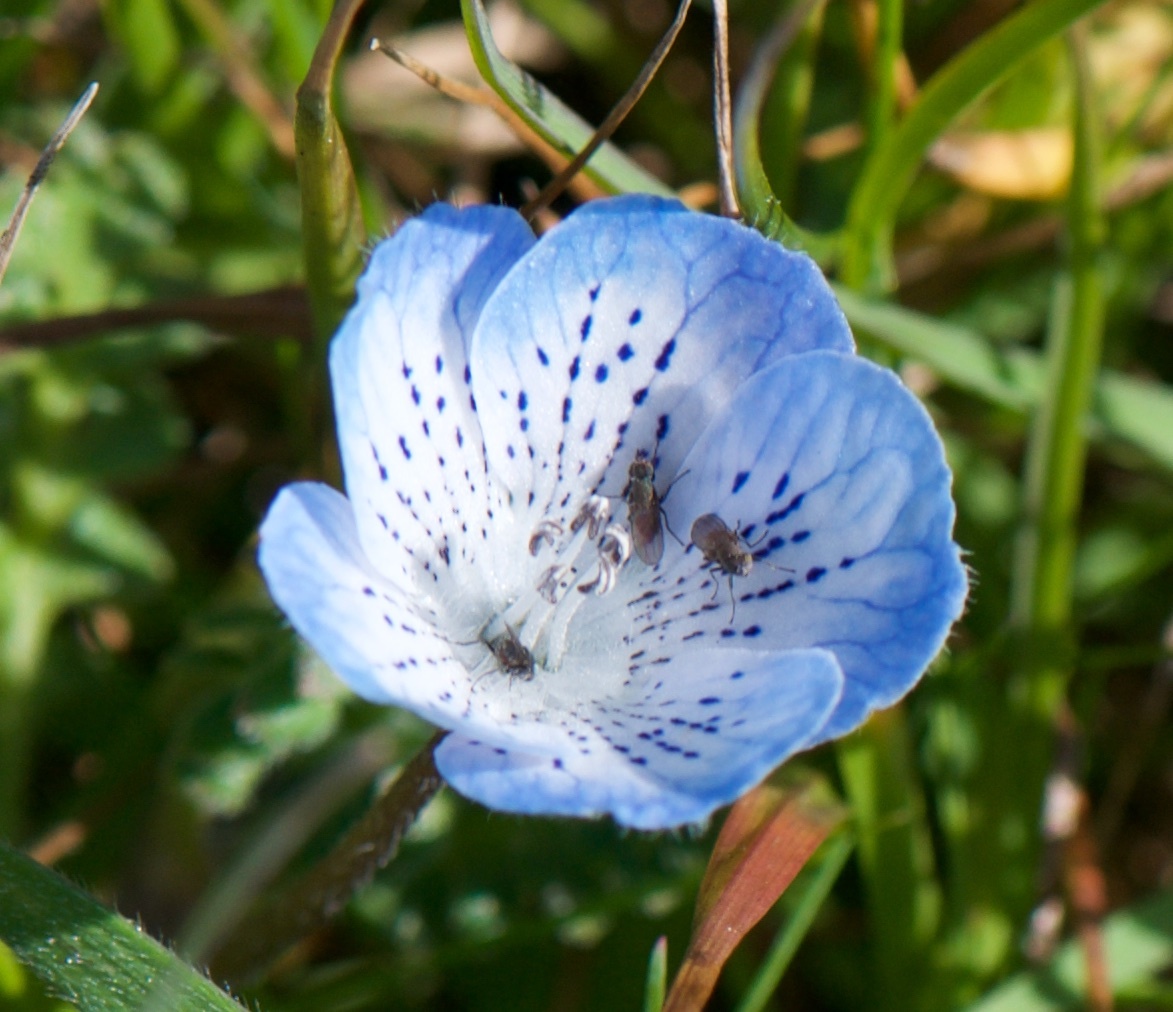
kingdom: Plantae
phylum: Tracheophyta
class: Magnoliopsida
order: Boraginales
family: Hydrophyllaceae
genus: Nemophila
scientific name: Nemophila menziesii
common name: Baby's-blue-eyes
